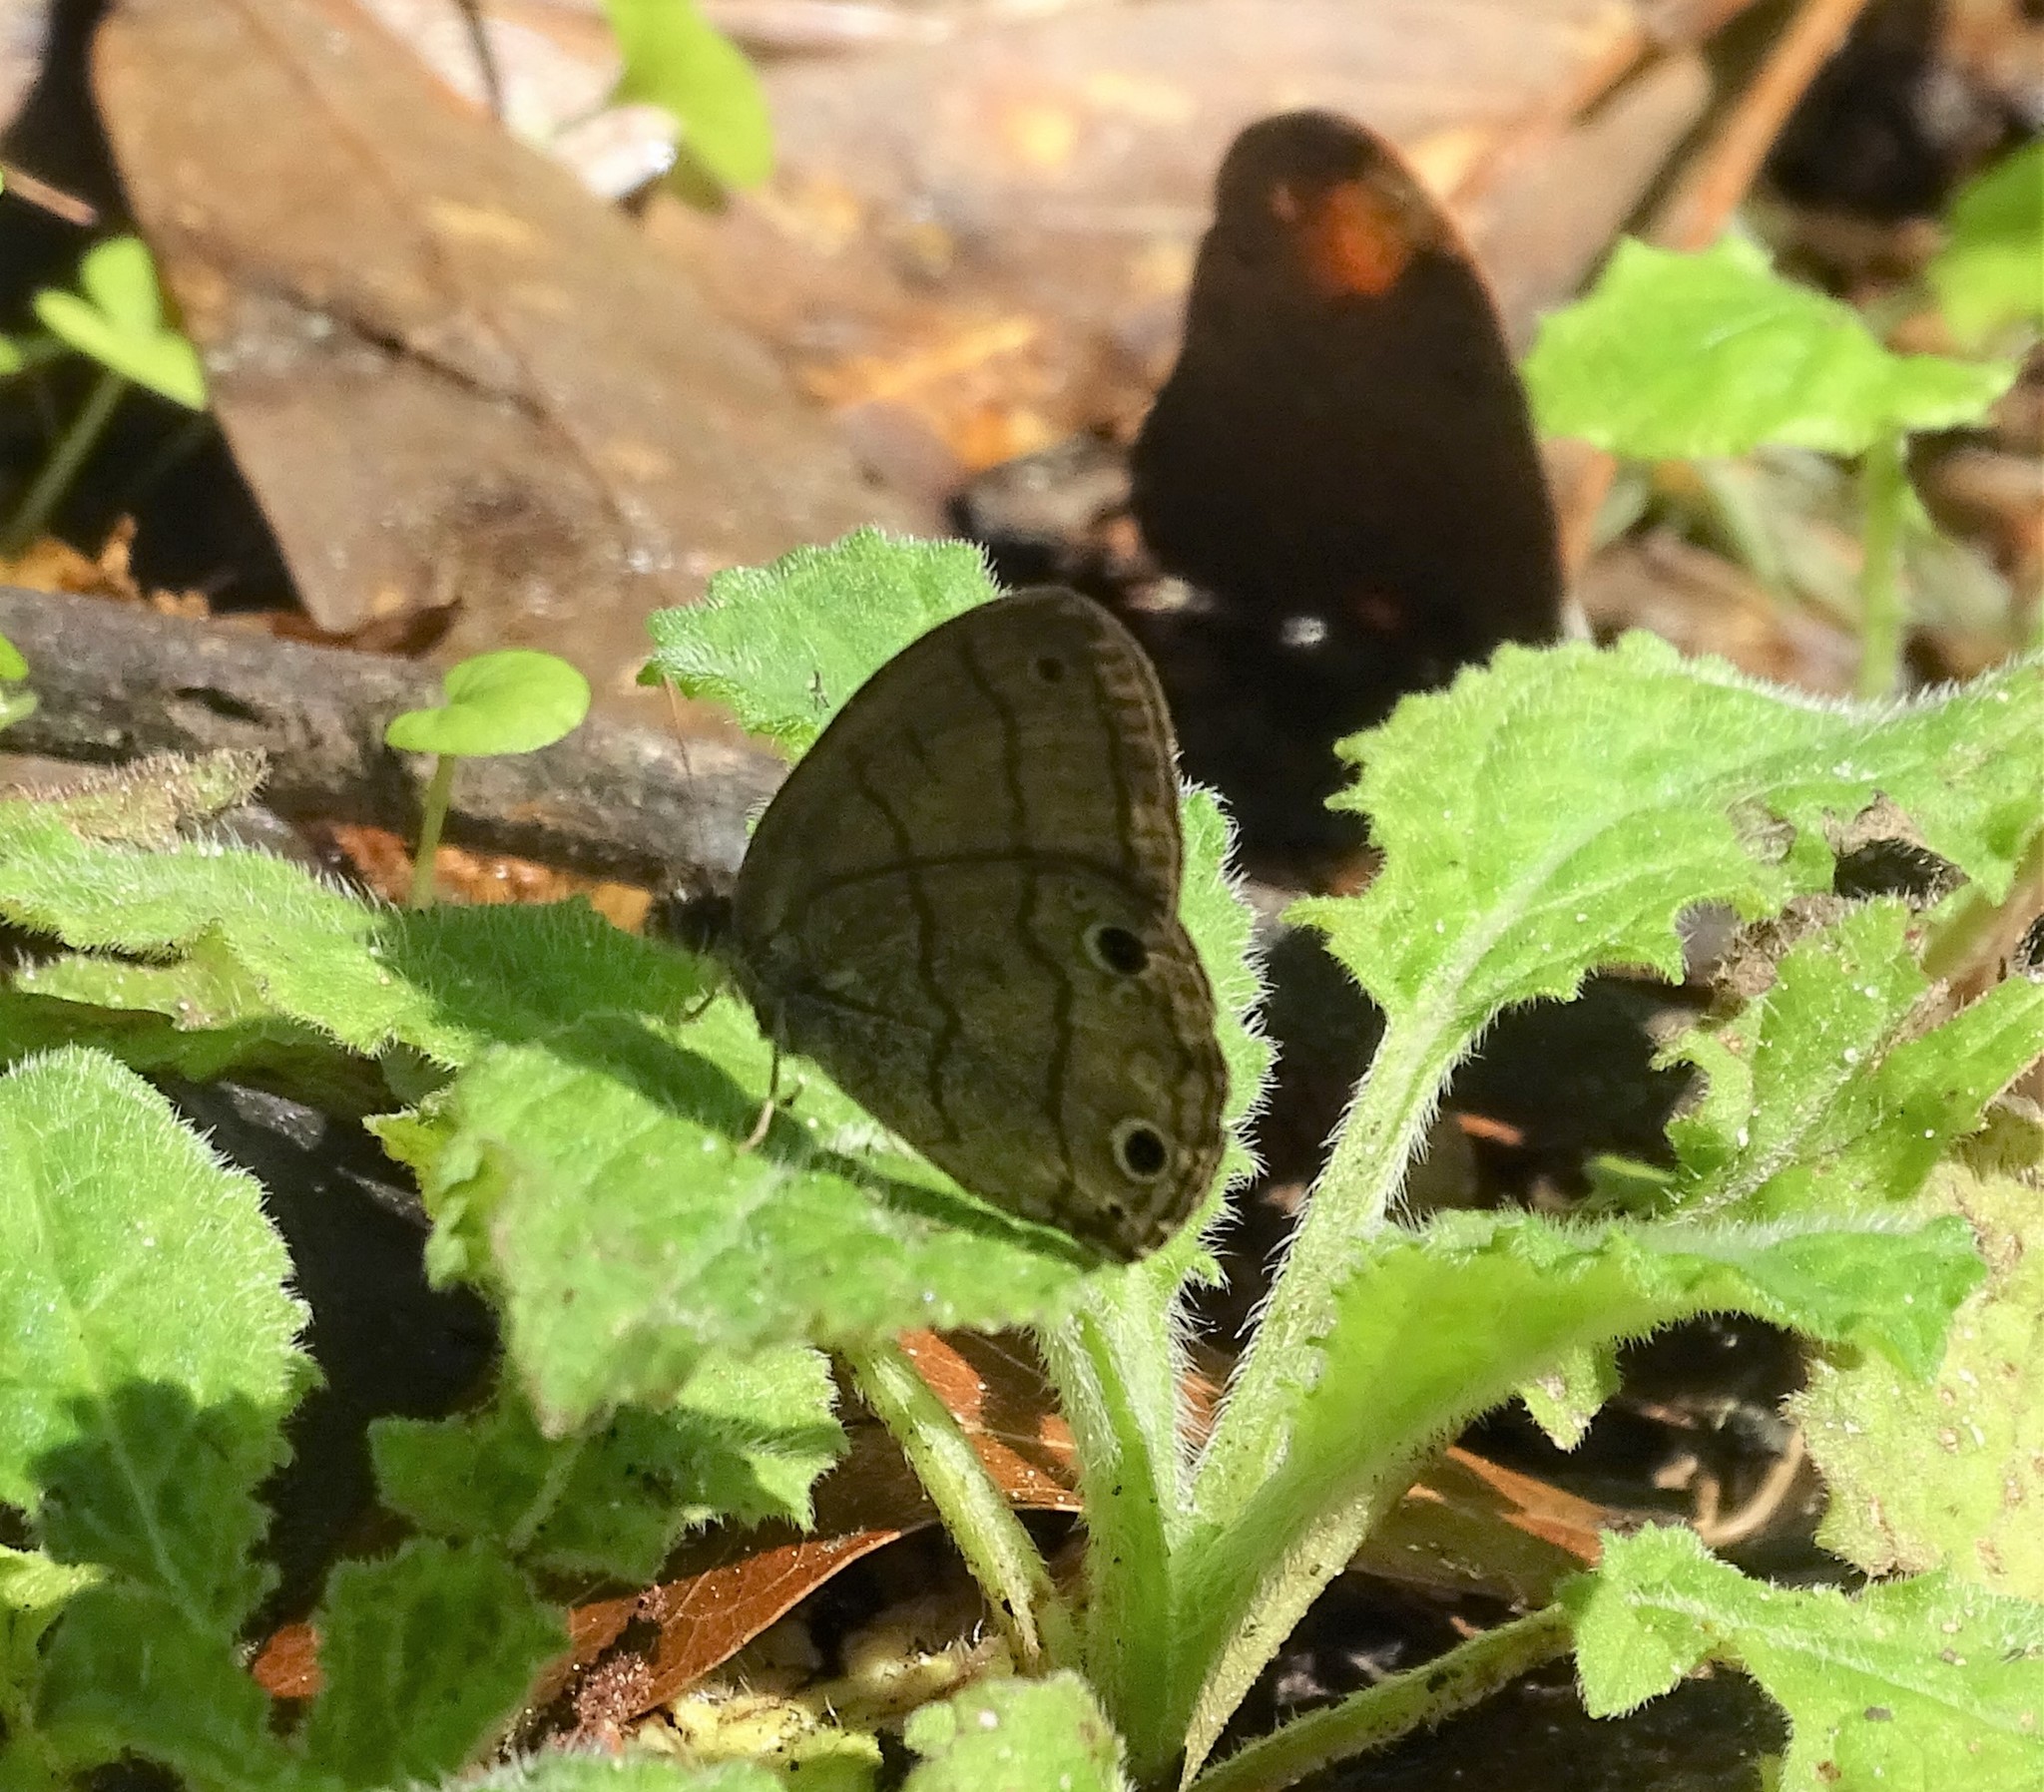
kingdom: Animalia
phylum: Arthropoda
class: Insecta
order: Lepidoptera
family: Nymphalidae
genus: Hermeuptychia
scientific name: Hermeuptychia hermes
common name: Hermes satyr
